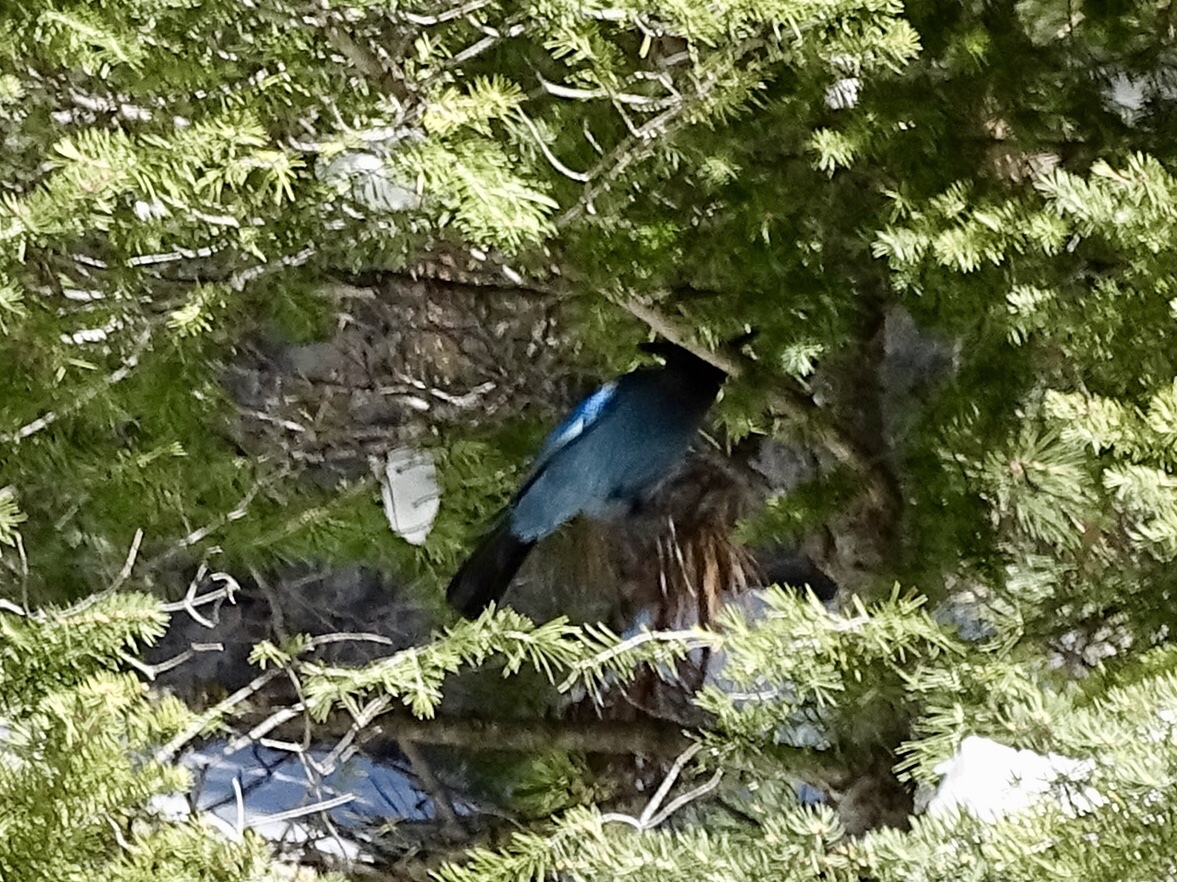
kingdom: Animalia
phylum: Chordata
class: Aves
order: Passeriformes
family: Corvidae
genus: Cyanocitta
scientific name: Cyanocitta stelleri
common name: Steller's jay
